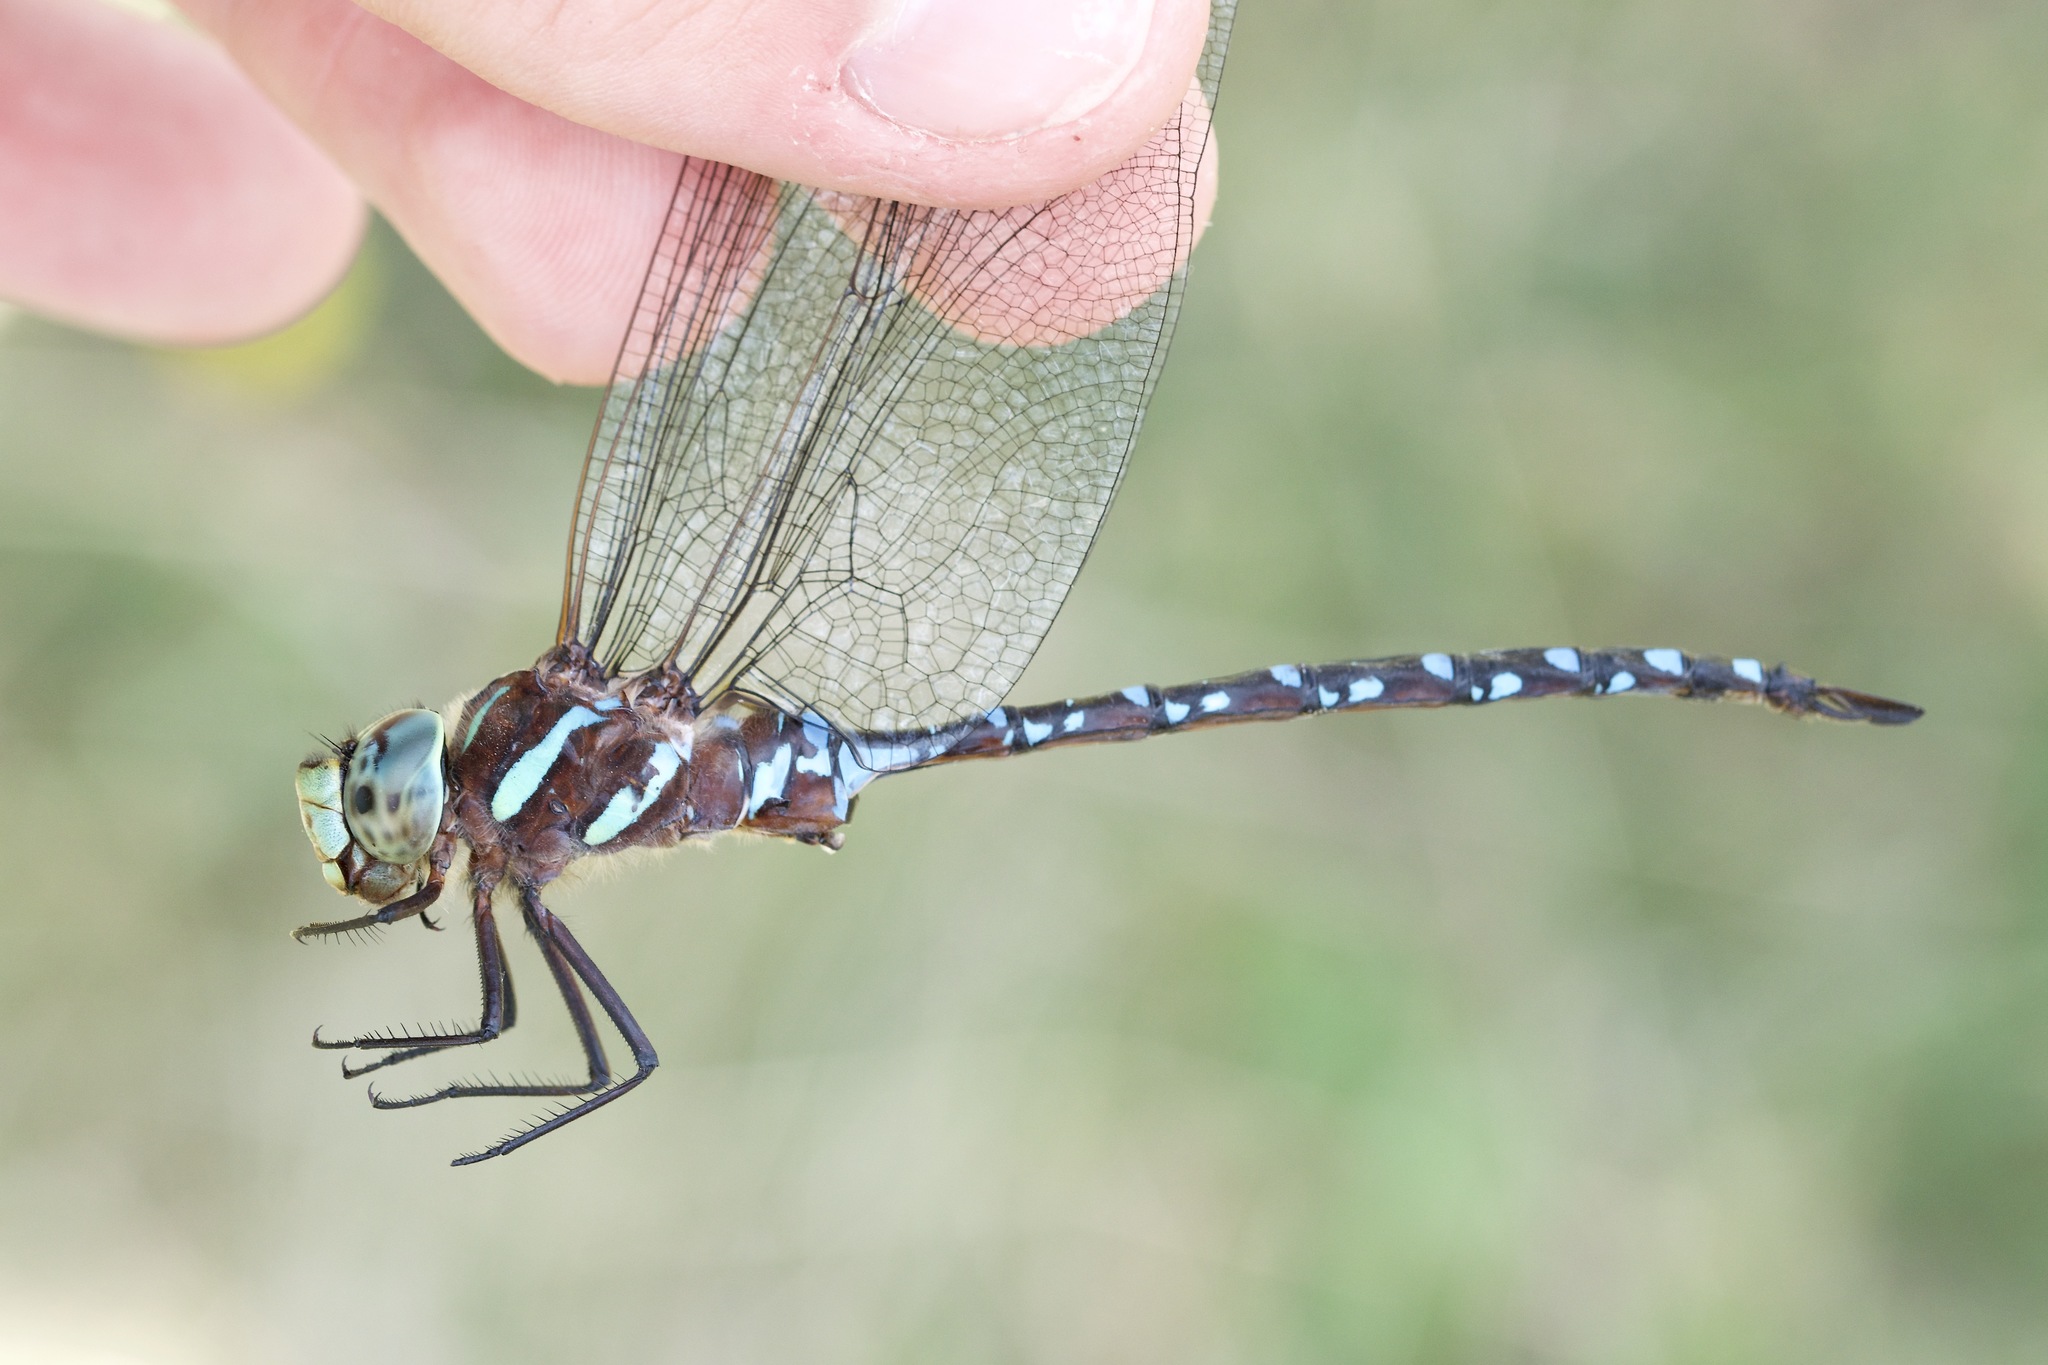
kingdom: Animalia
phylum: Arthropoda
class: Insecta
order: Odonata
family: Aeshnidae
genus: Aeshna
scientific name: Aeshna tuberculifera
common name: Aeschne à tubercules
